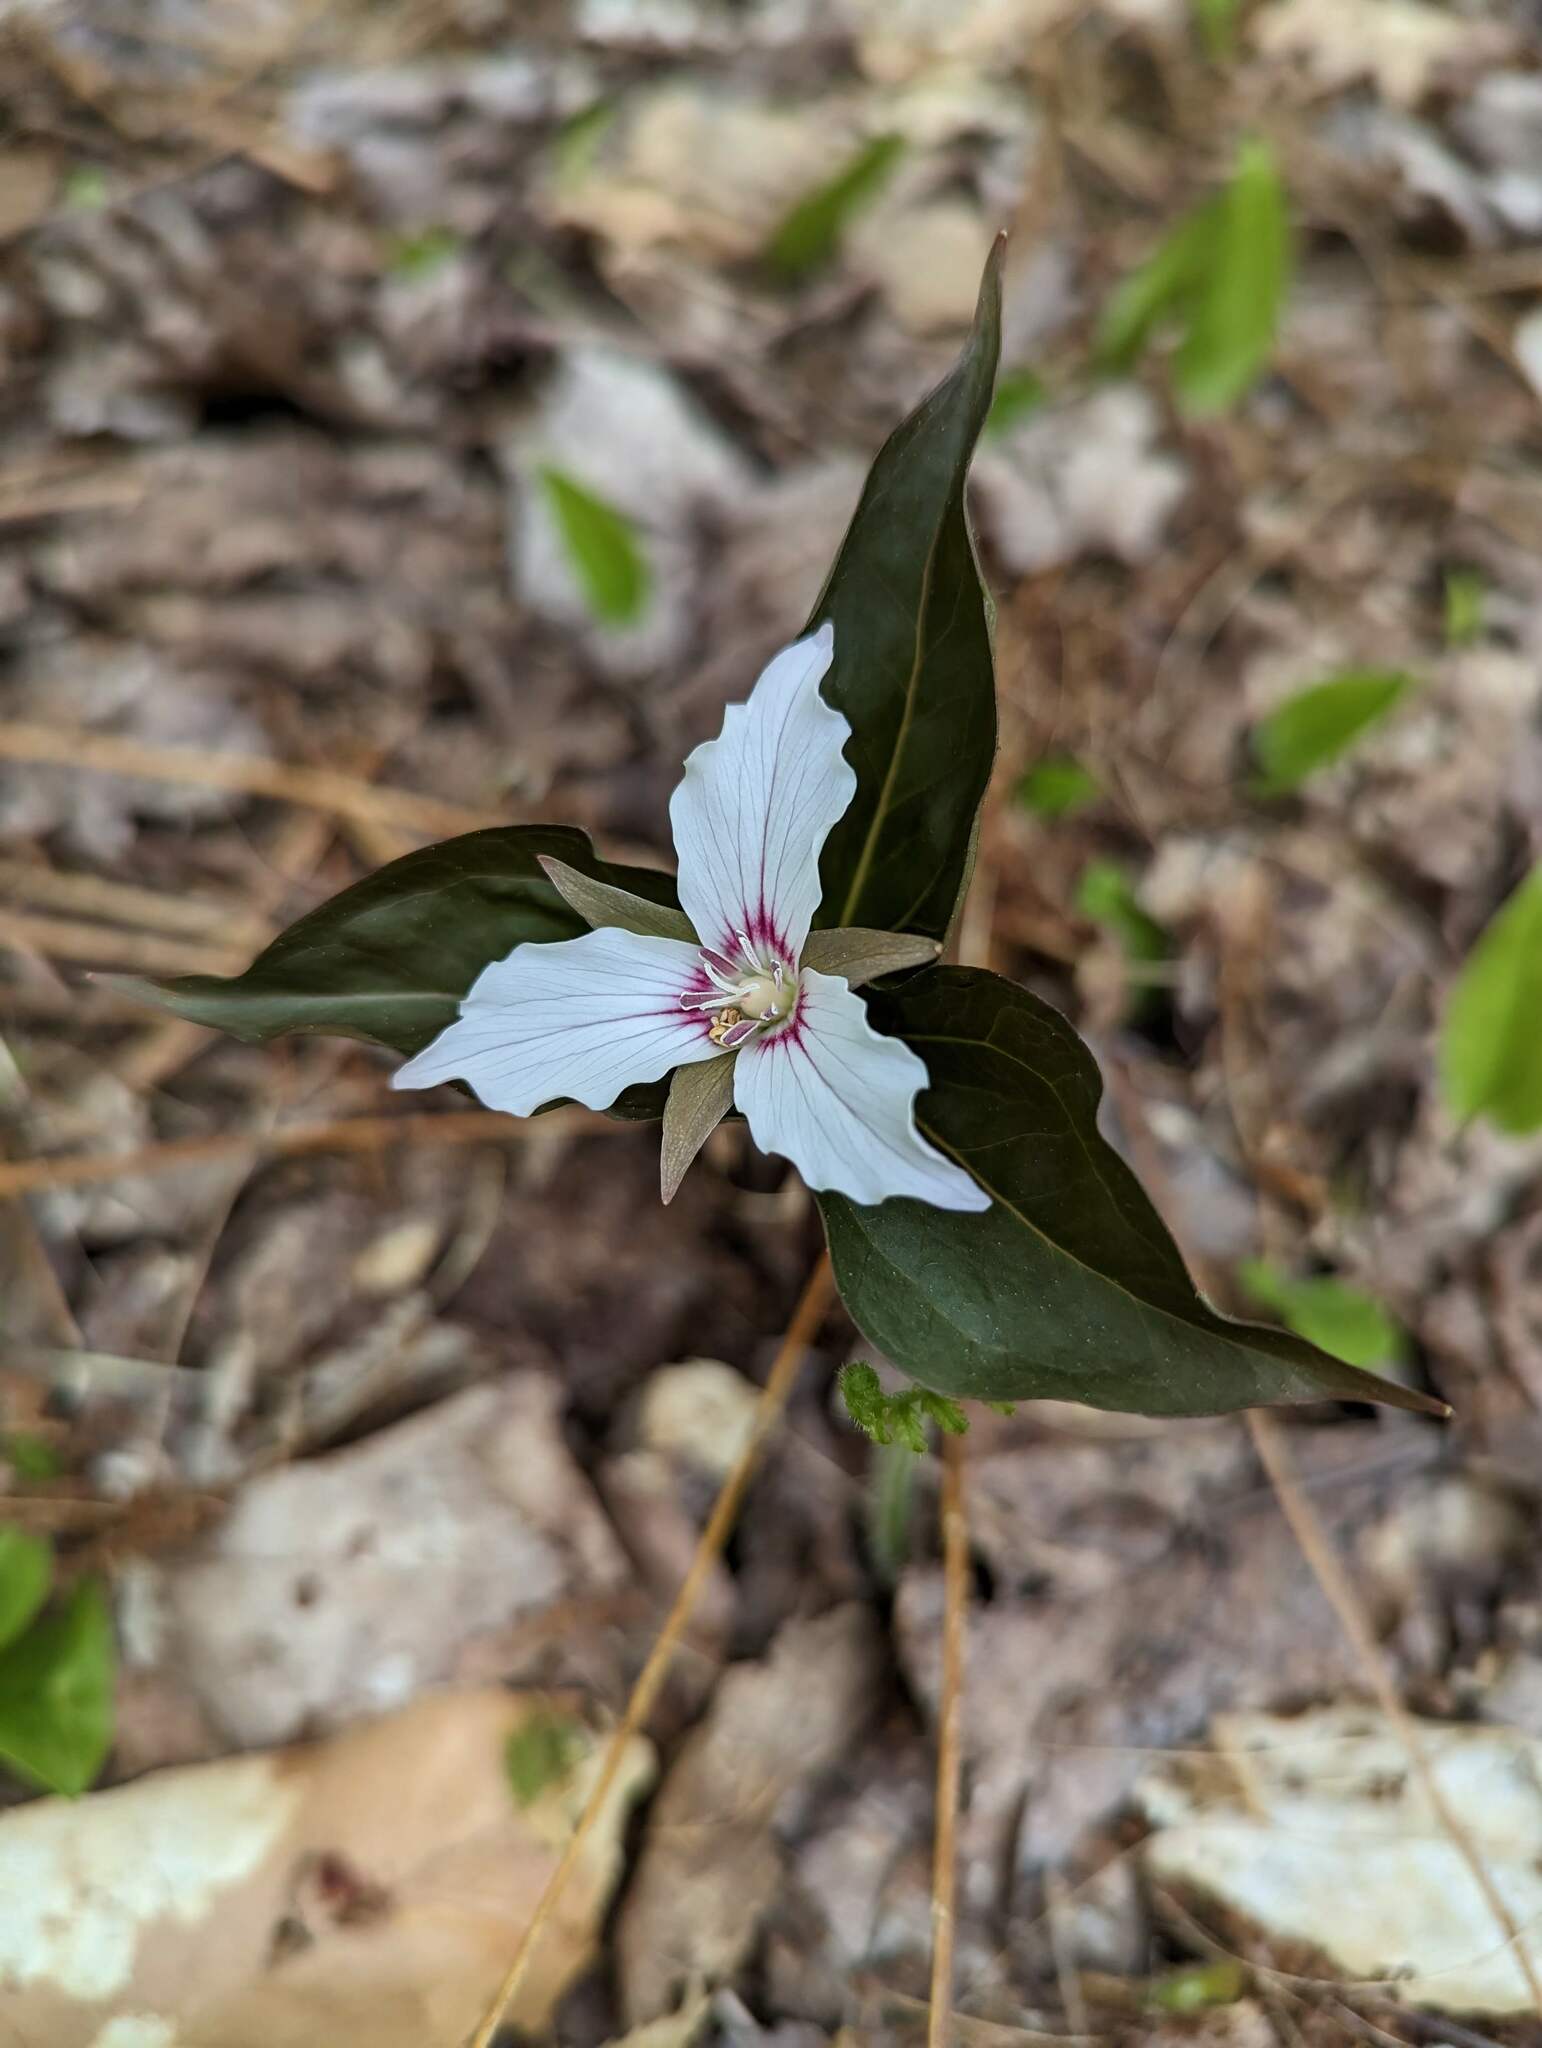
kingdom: Plantae
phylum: Tracheophyta
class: Liliopsida
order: Liliales
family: Melanthiaceae
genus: Trillium
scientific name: Trillium undulatum
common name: Paint trillium
